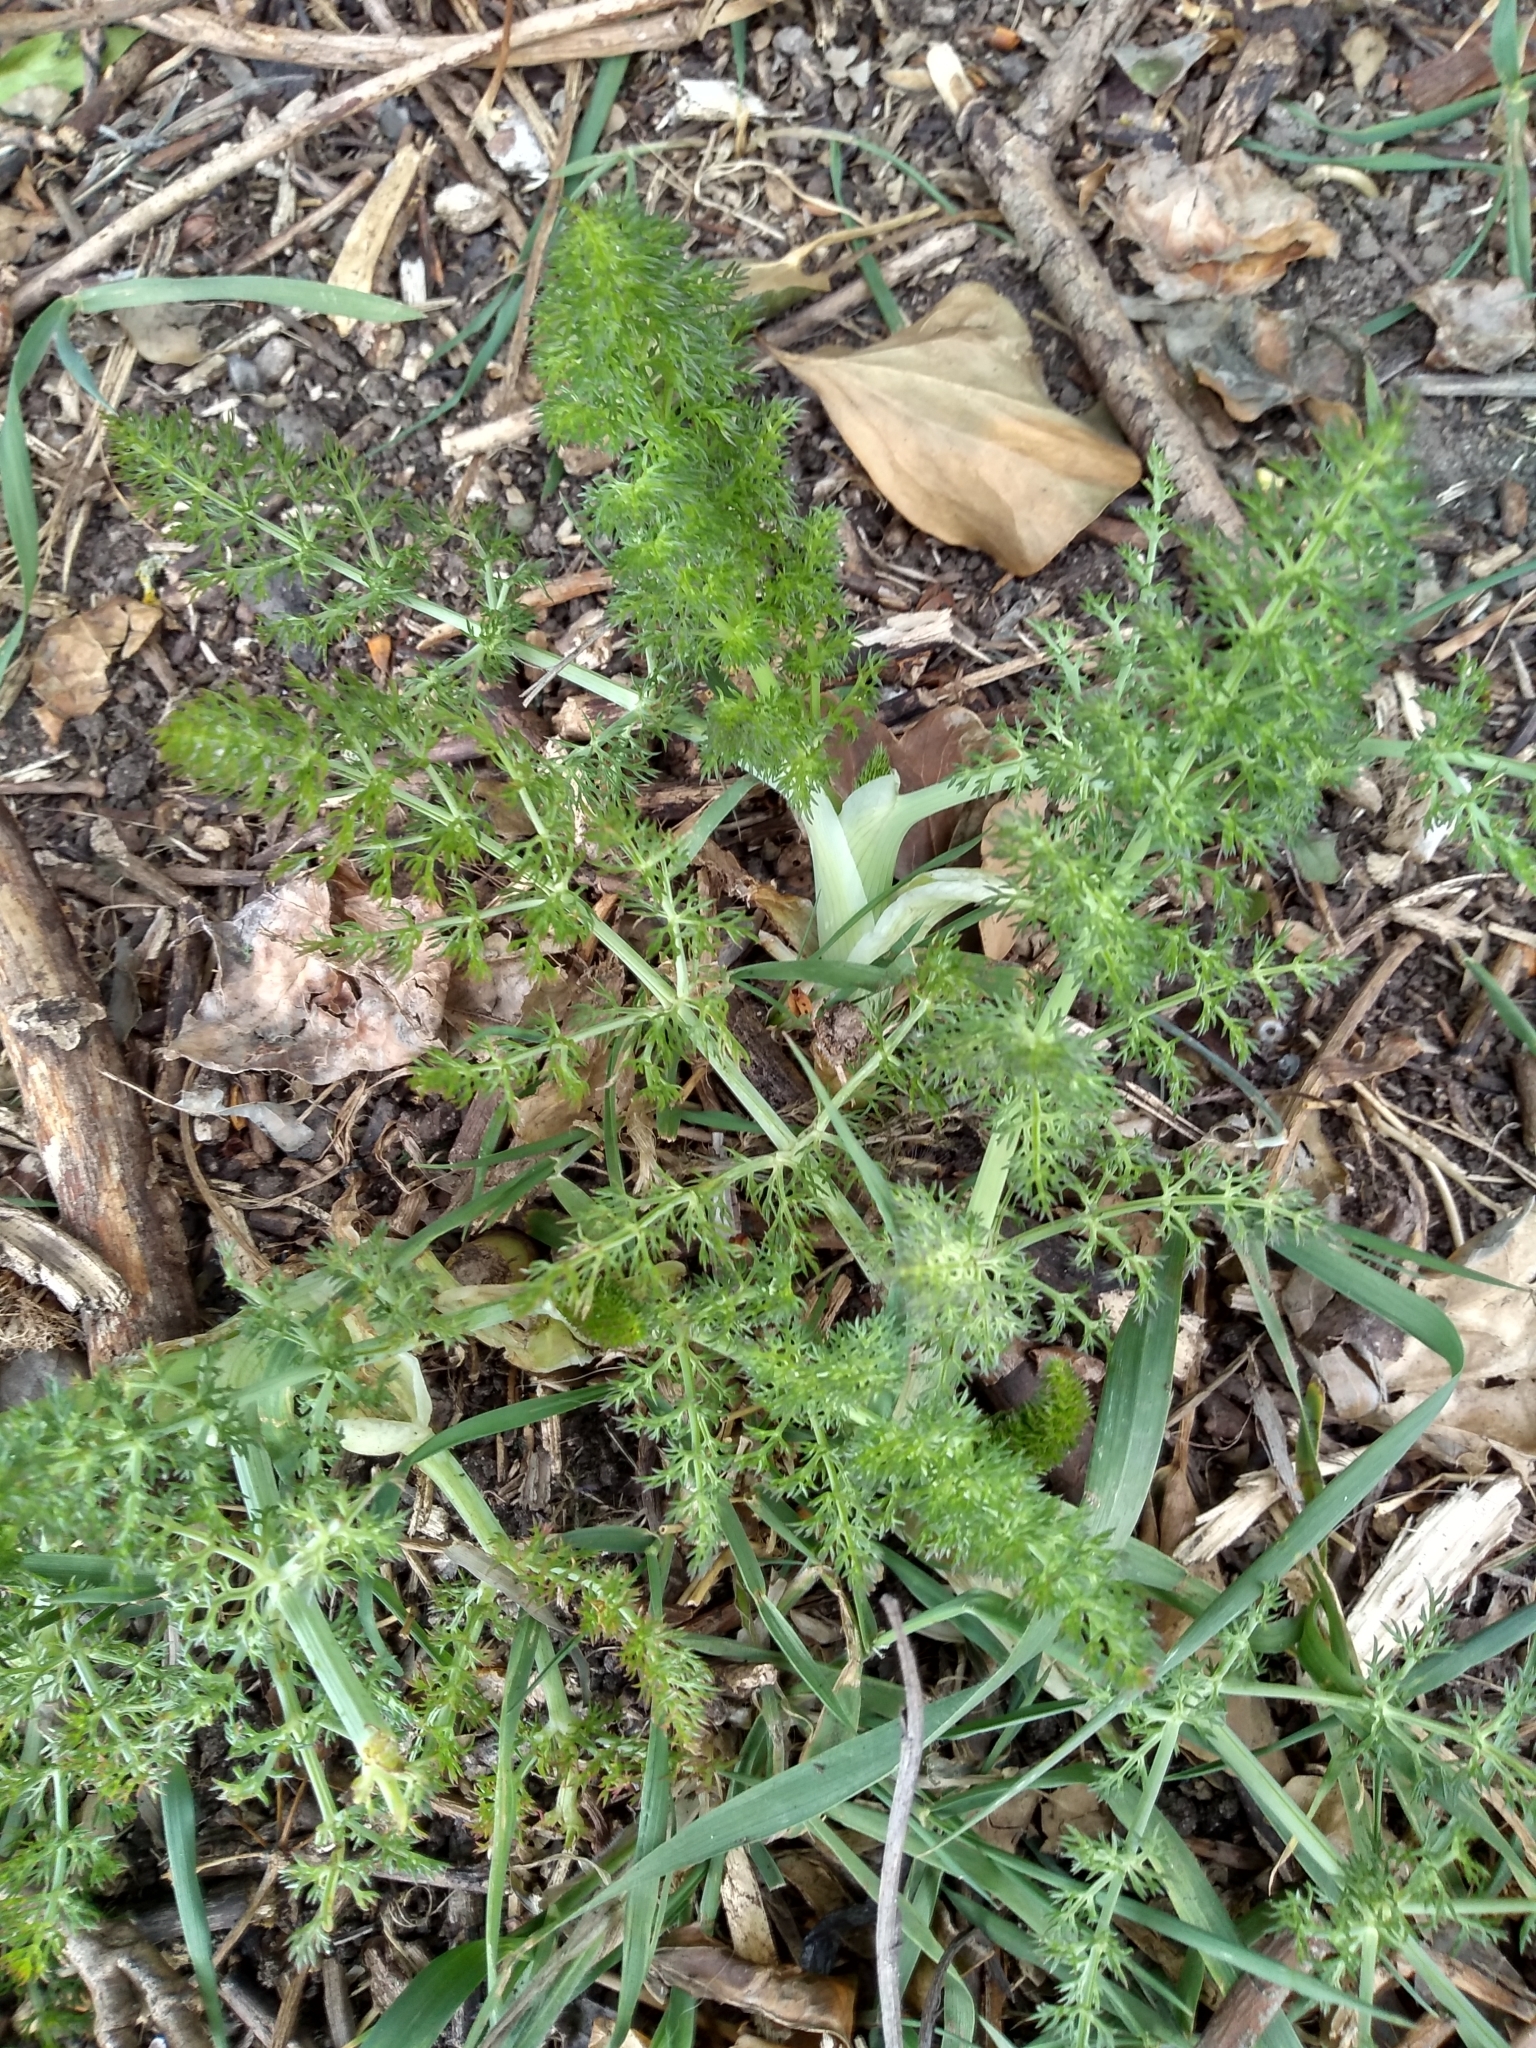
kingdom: Plantae
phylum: Tracheophyta
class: Magnoliopsida
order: Apiales
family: Apiaceae
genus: Foeniculum
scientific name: Foeniculum vulgare
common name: Fennel
